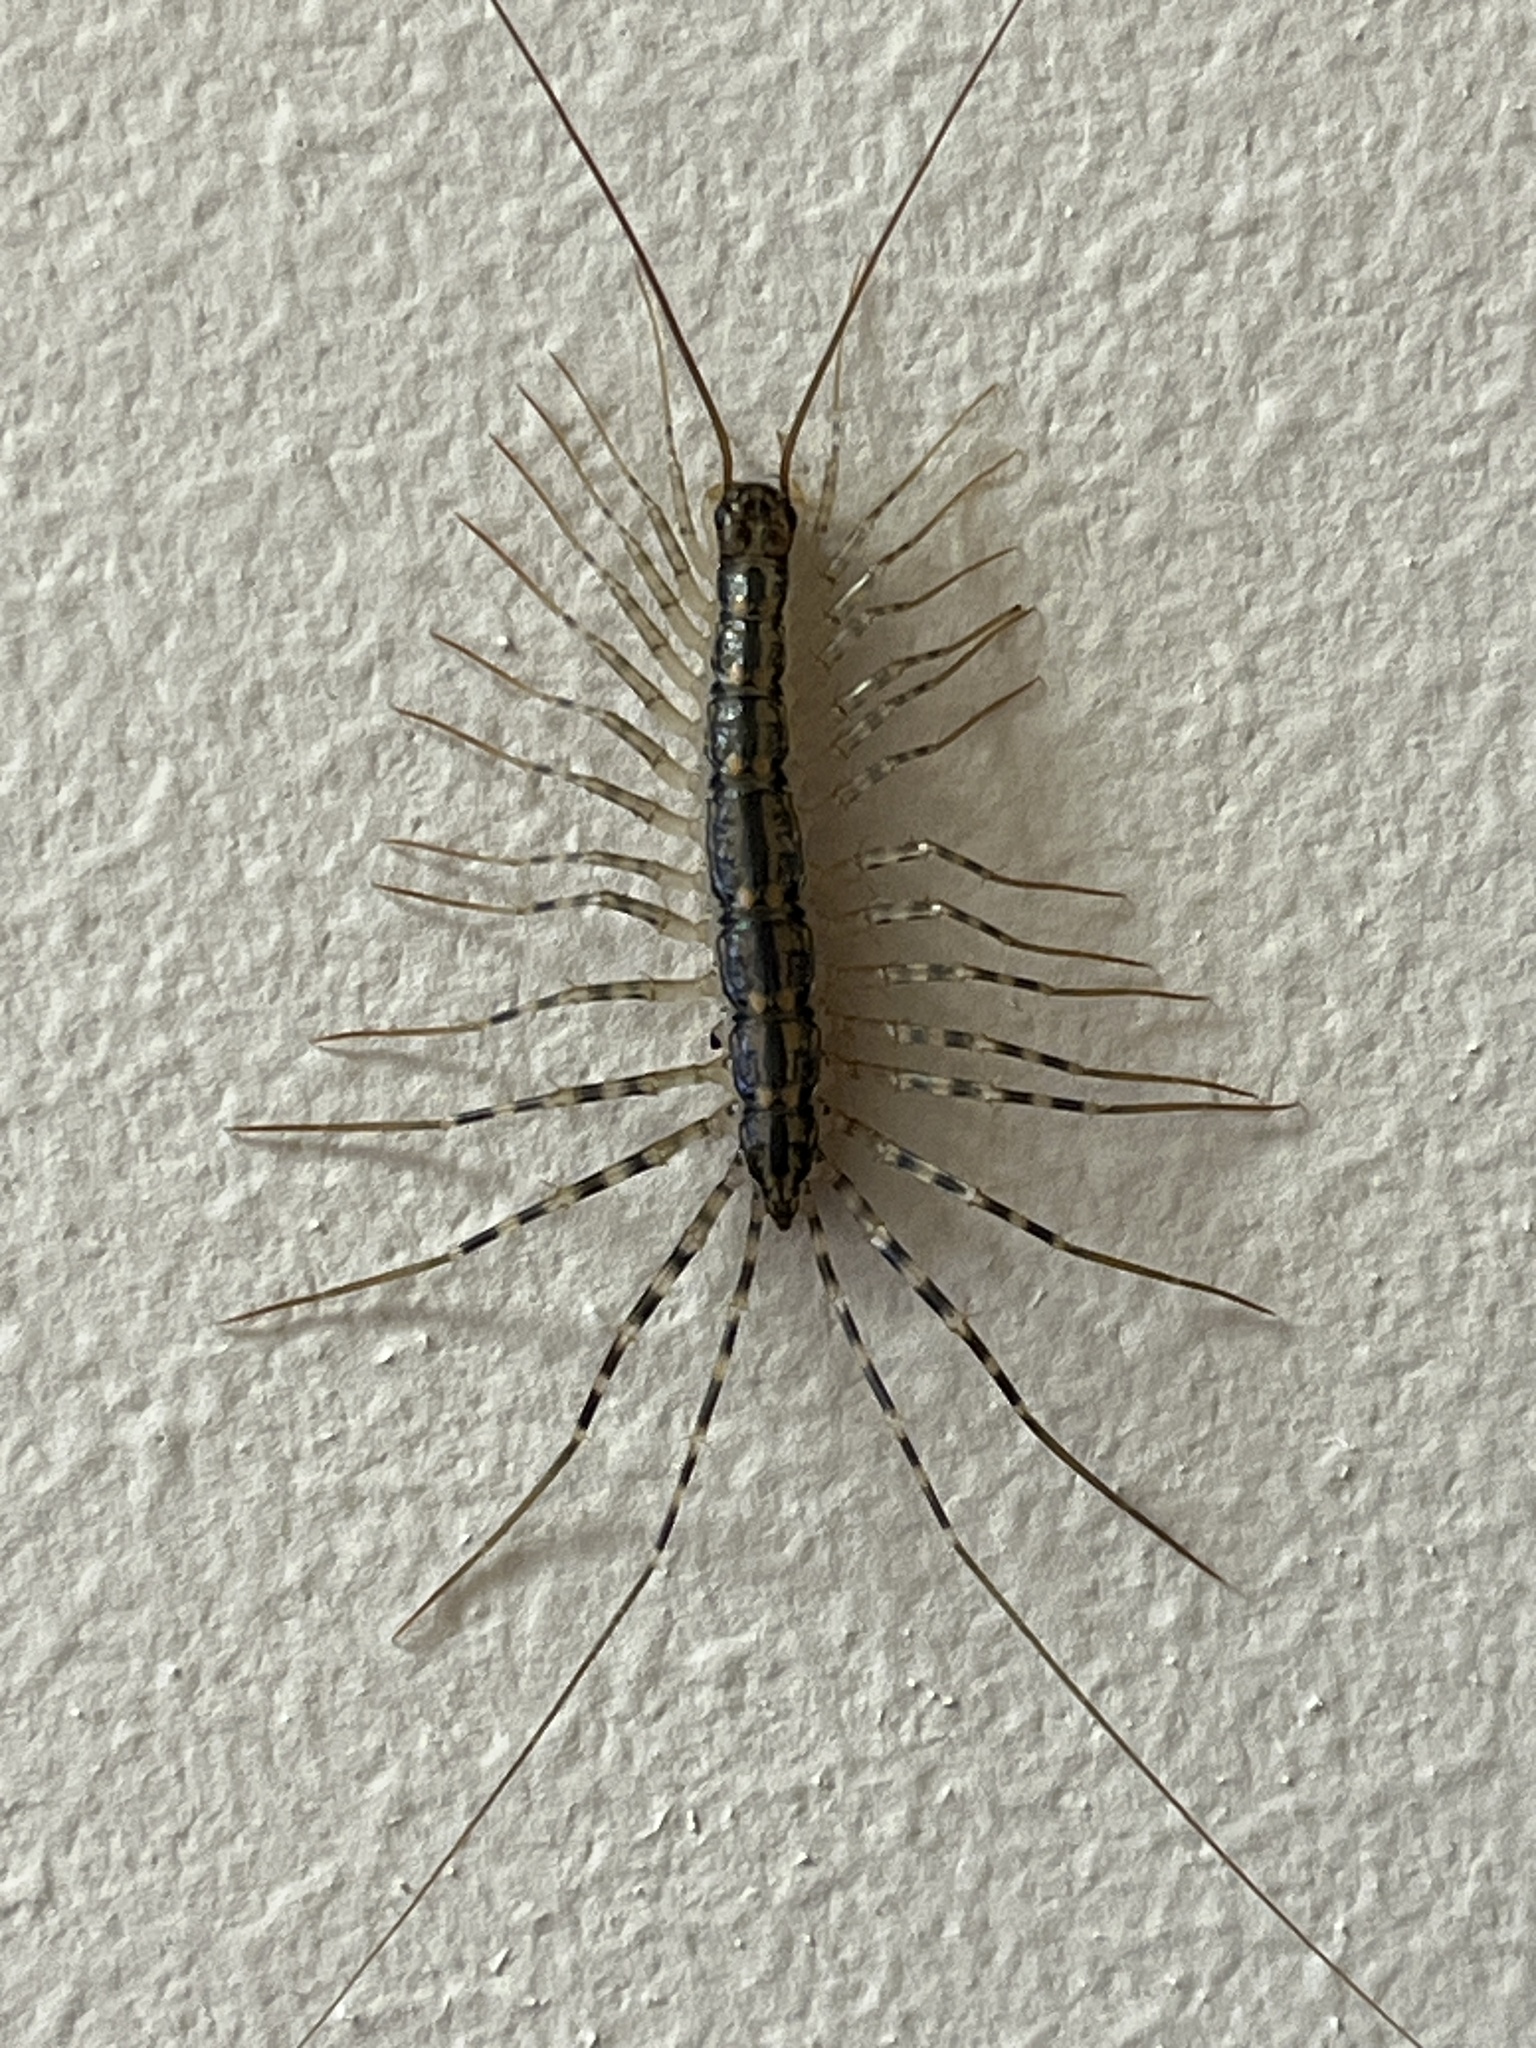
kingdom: Animalia
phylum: Arthropoda
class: Chilopoda
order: Scutigeromorpha
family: Scutigeridae
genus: Thereuonema
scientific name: Thereuonema tuberculata
